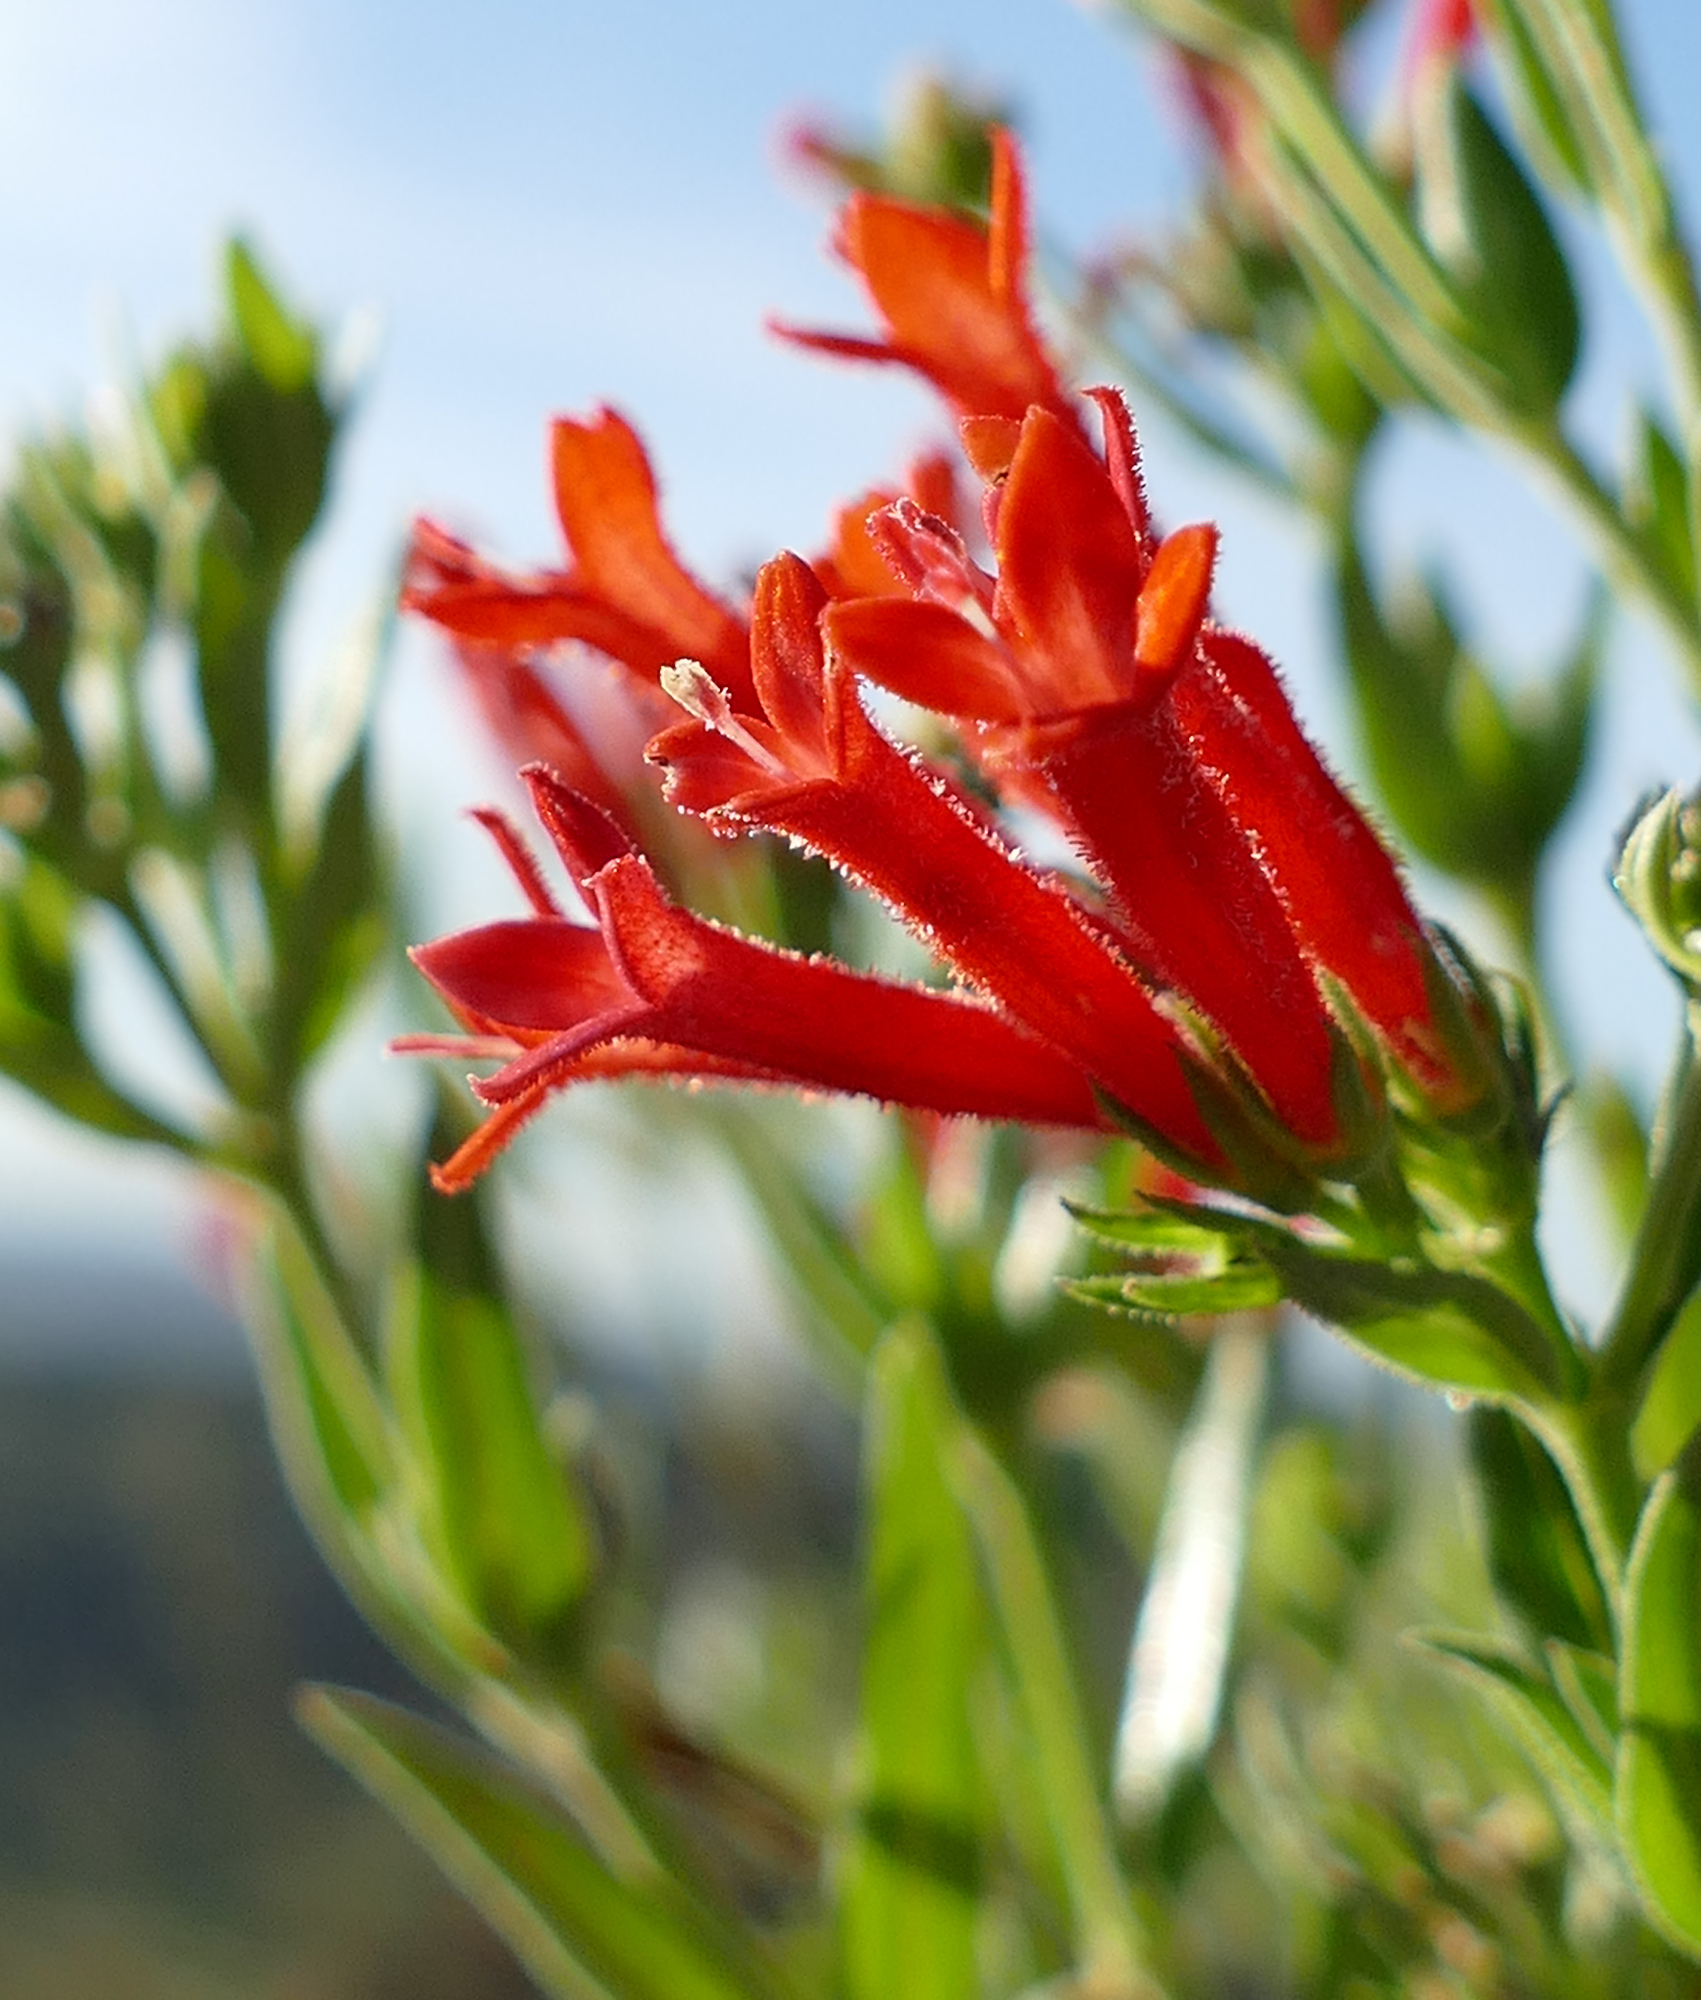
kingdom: Plantae
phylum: Tracheophyta
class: Magnoliopsida
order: Gentianales
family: Rubiaceae
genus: Bouvardia
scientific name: Bouvardia ternifolia
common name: Scarlet bouvardia
